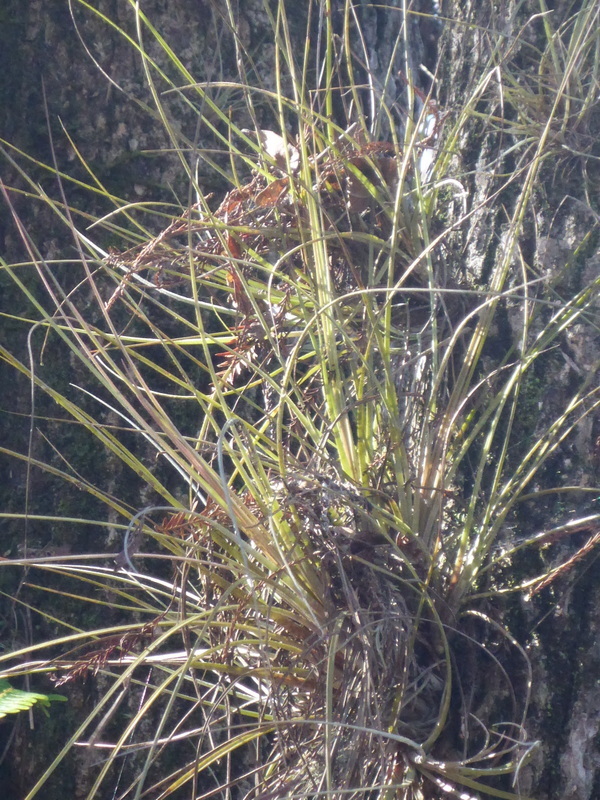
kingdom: Plantae
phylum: Tracheophyta
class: Liliopsida
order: Poales
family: Bromeliaceae
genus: Tillandsia
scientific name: Tillandsia bartramii
